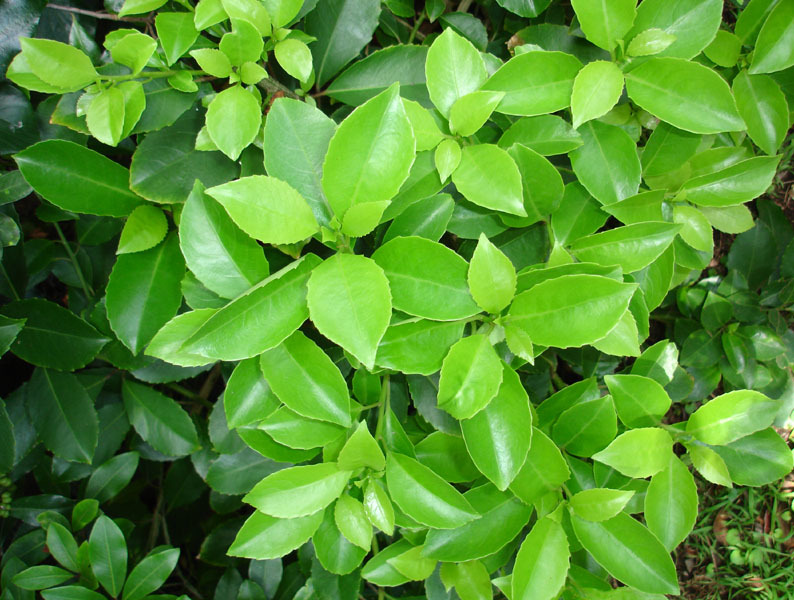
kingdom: Plantae
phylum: Tracheophyta
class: Magnoliopsida
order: Malpighiales
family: Violaceae
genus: Melicytus
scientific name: Melicytus macrophyllus
